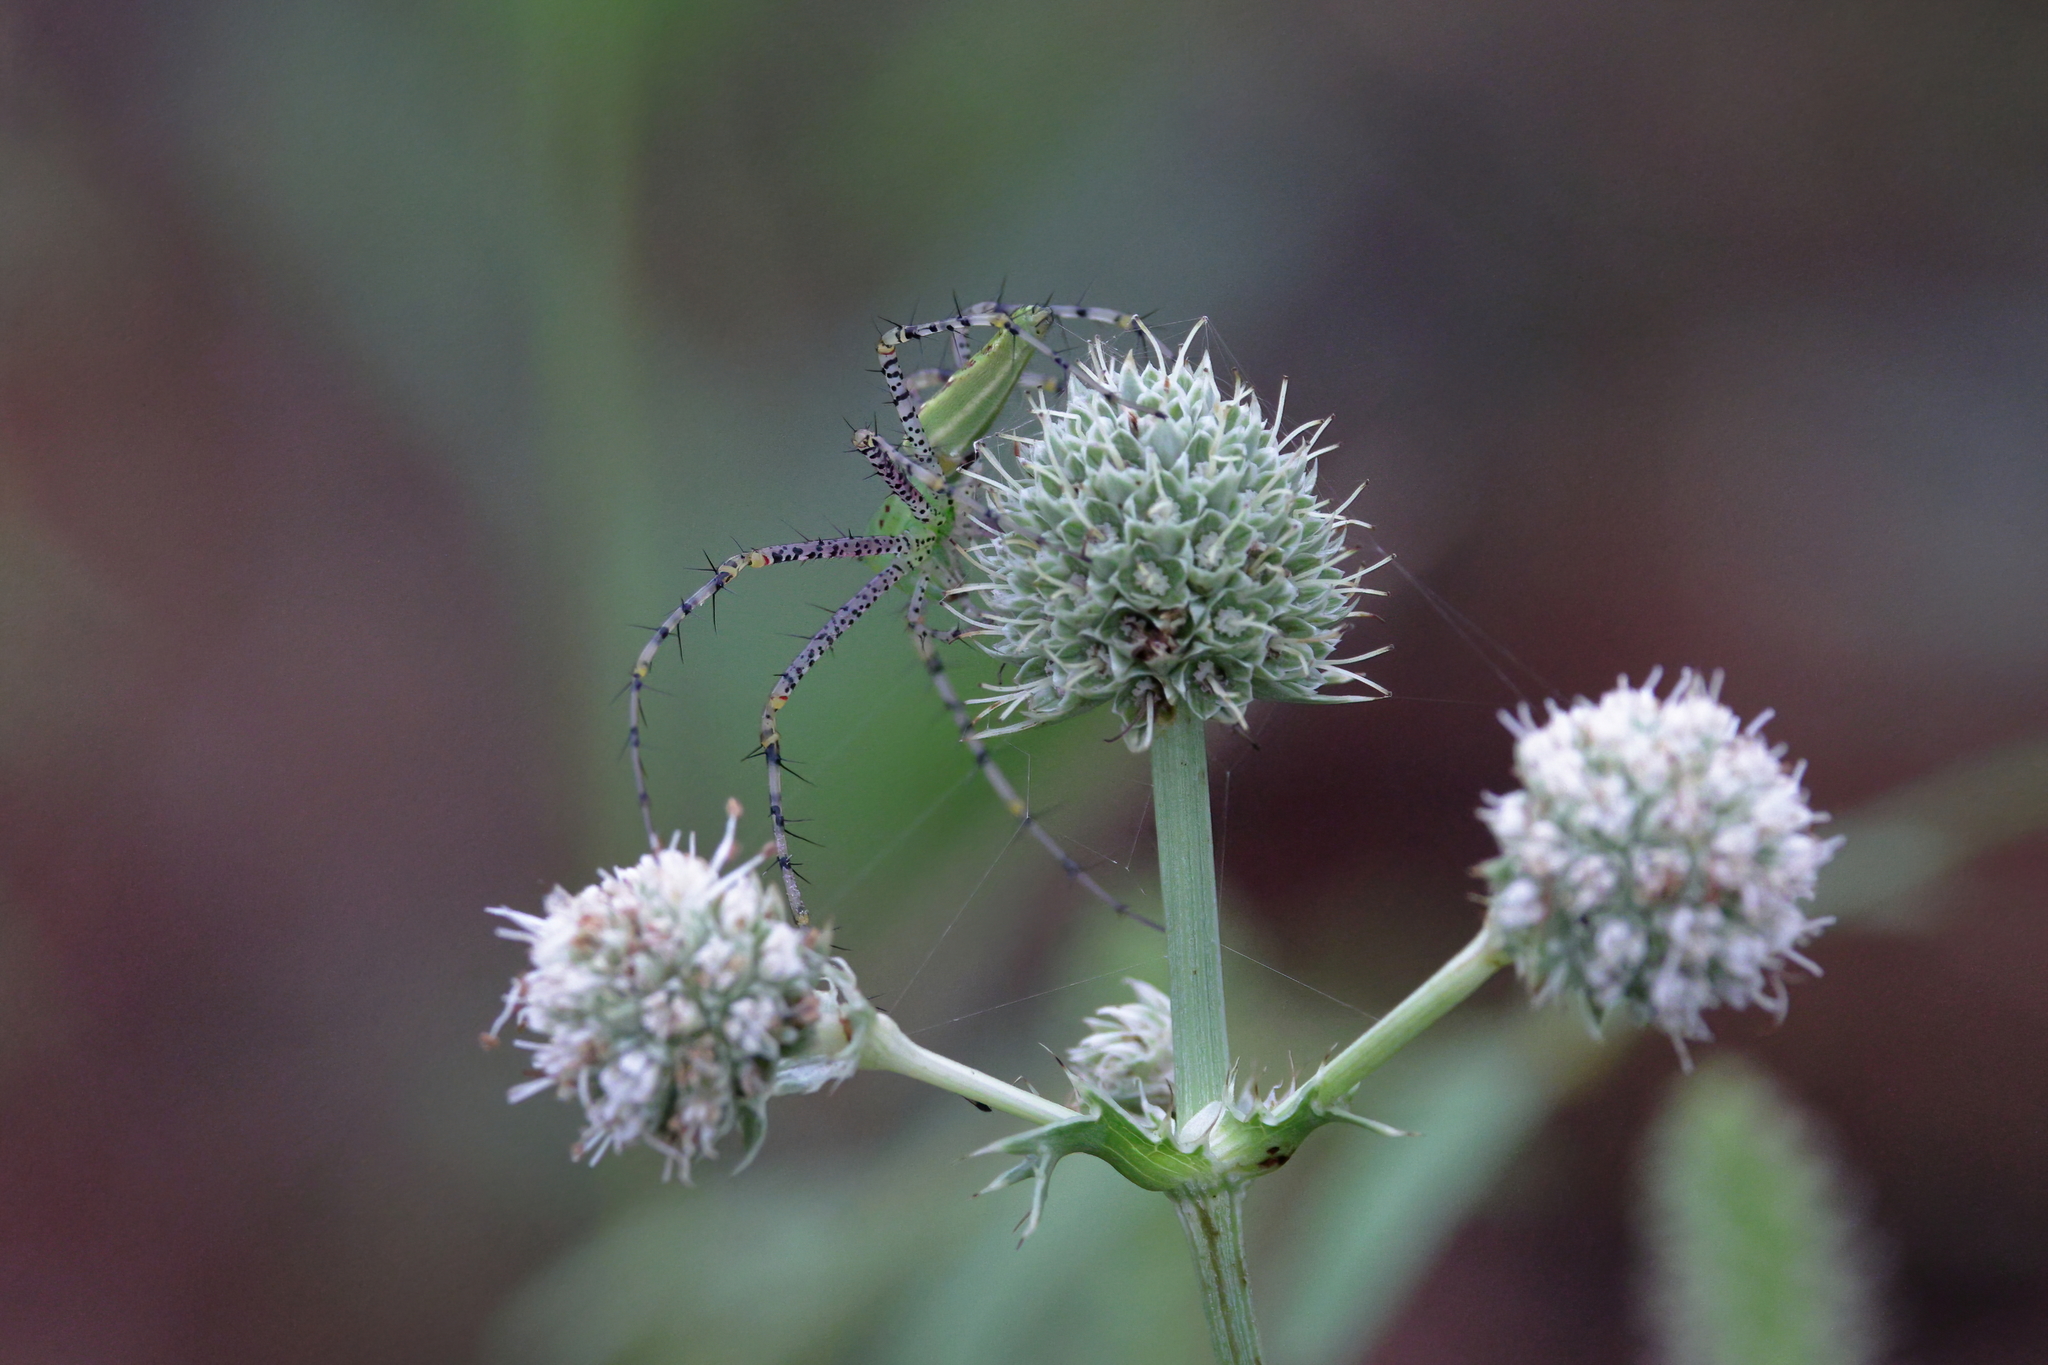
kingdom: Animalia
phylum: Arthropoda
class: Arachnida
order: Araneae
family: Oxyopidae
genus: Peucetia
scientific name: Peucetia viridans
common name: Lynx spiders
